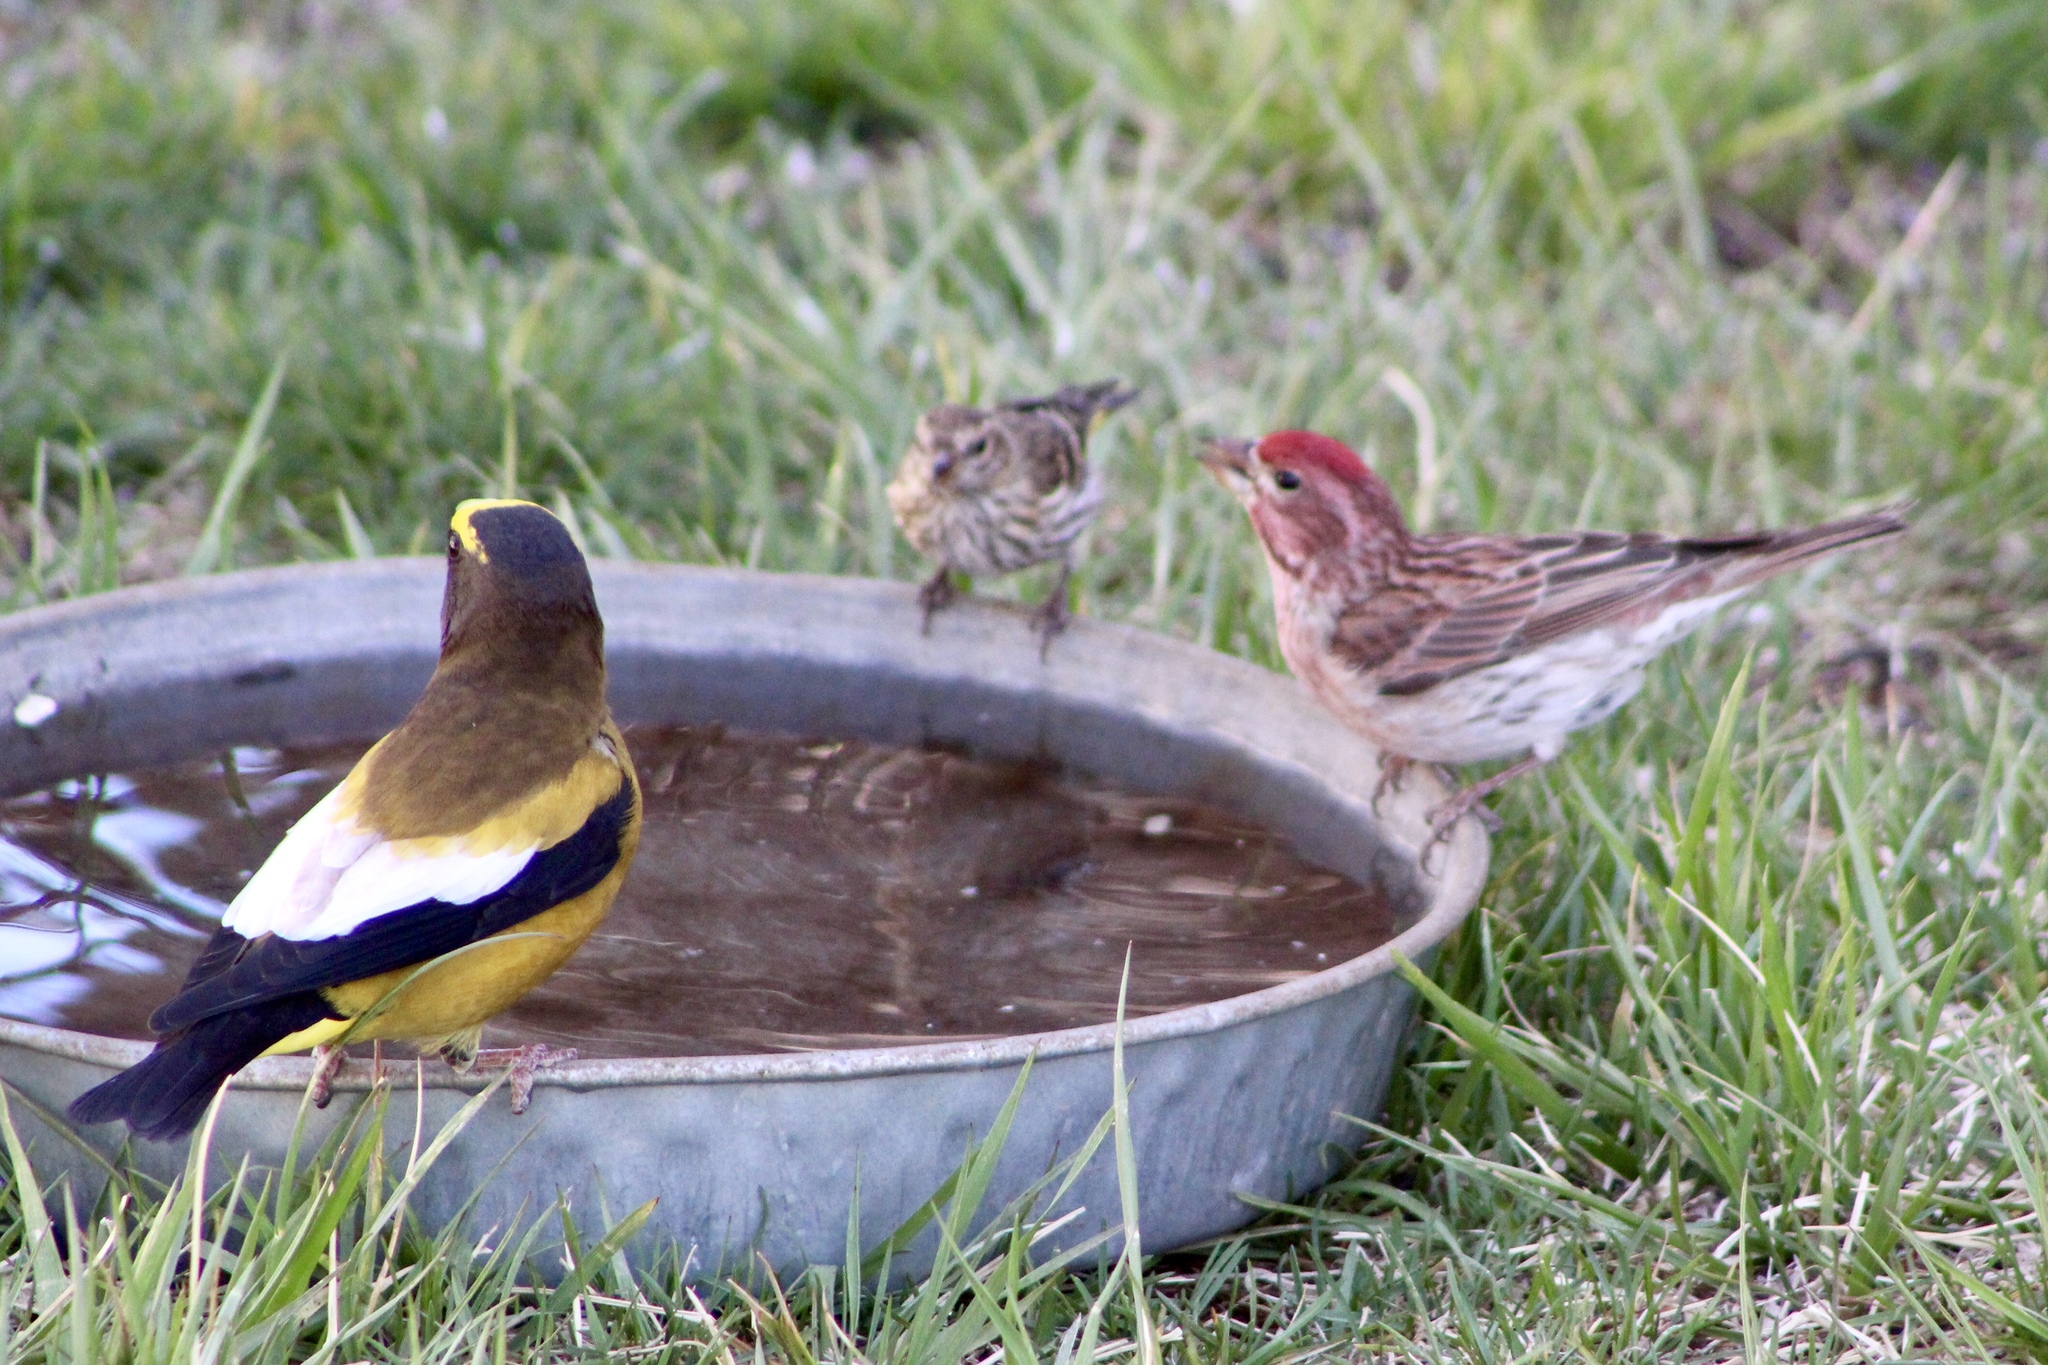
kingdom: Animalia
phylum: Chordata
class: Aves
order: Passeriformes
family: Fringillidae
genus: Haemorhous
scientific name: Haemorhous cassinii
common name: Cassin's finch
